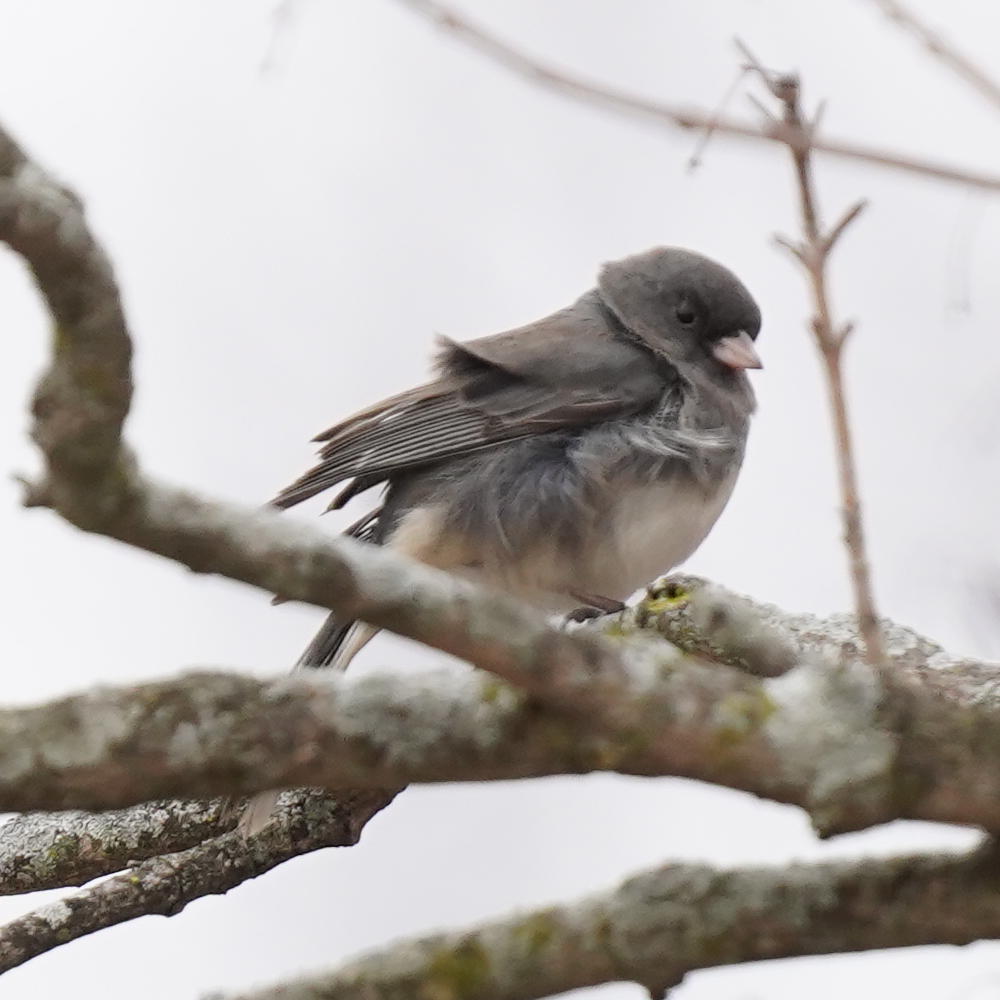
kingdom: Animalia
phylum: Chordata
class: Aves
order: Passeriformes
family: Passerellidae
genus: Junco
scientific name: Junco hyemalis
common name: Dark-eyed junco
